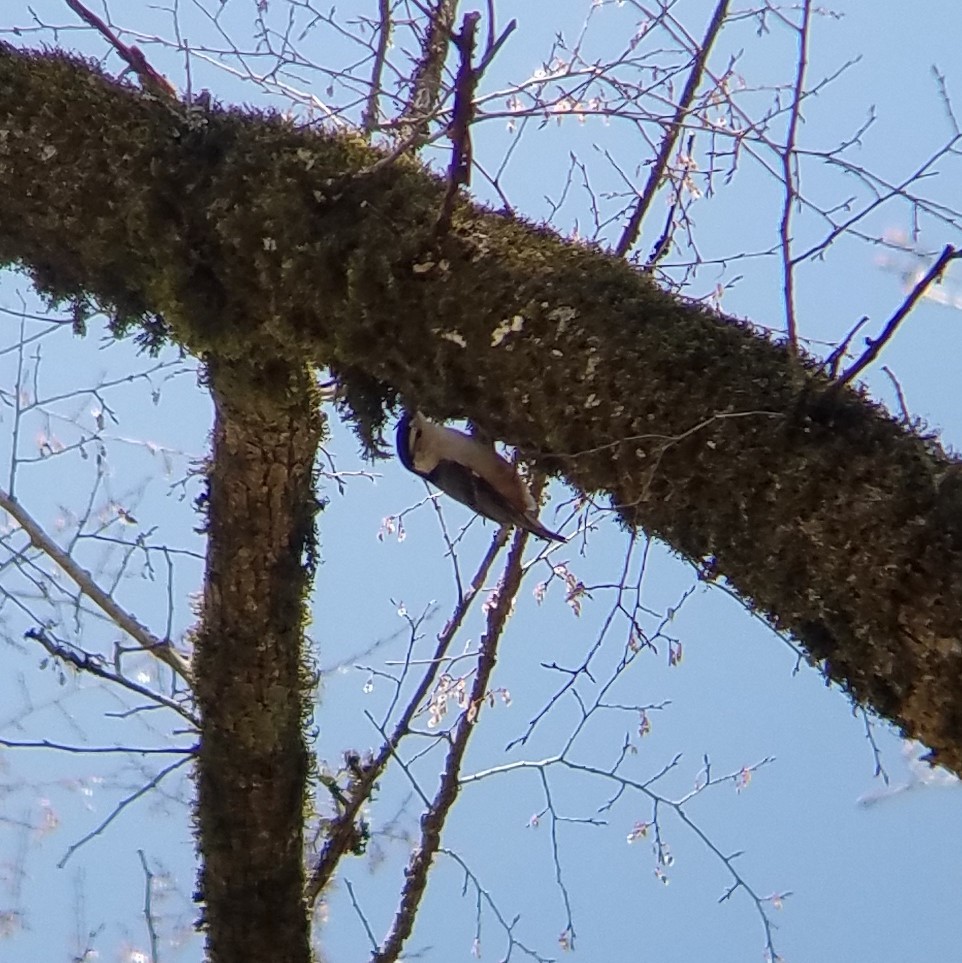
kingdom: Animalia
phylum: Chordata
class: Aves
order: Passeriformes
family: Sittidae
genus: Sitta
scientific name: Sitta carolinensis
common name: White-breasted nuthatch
